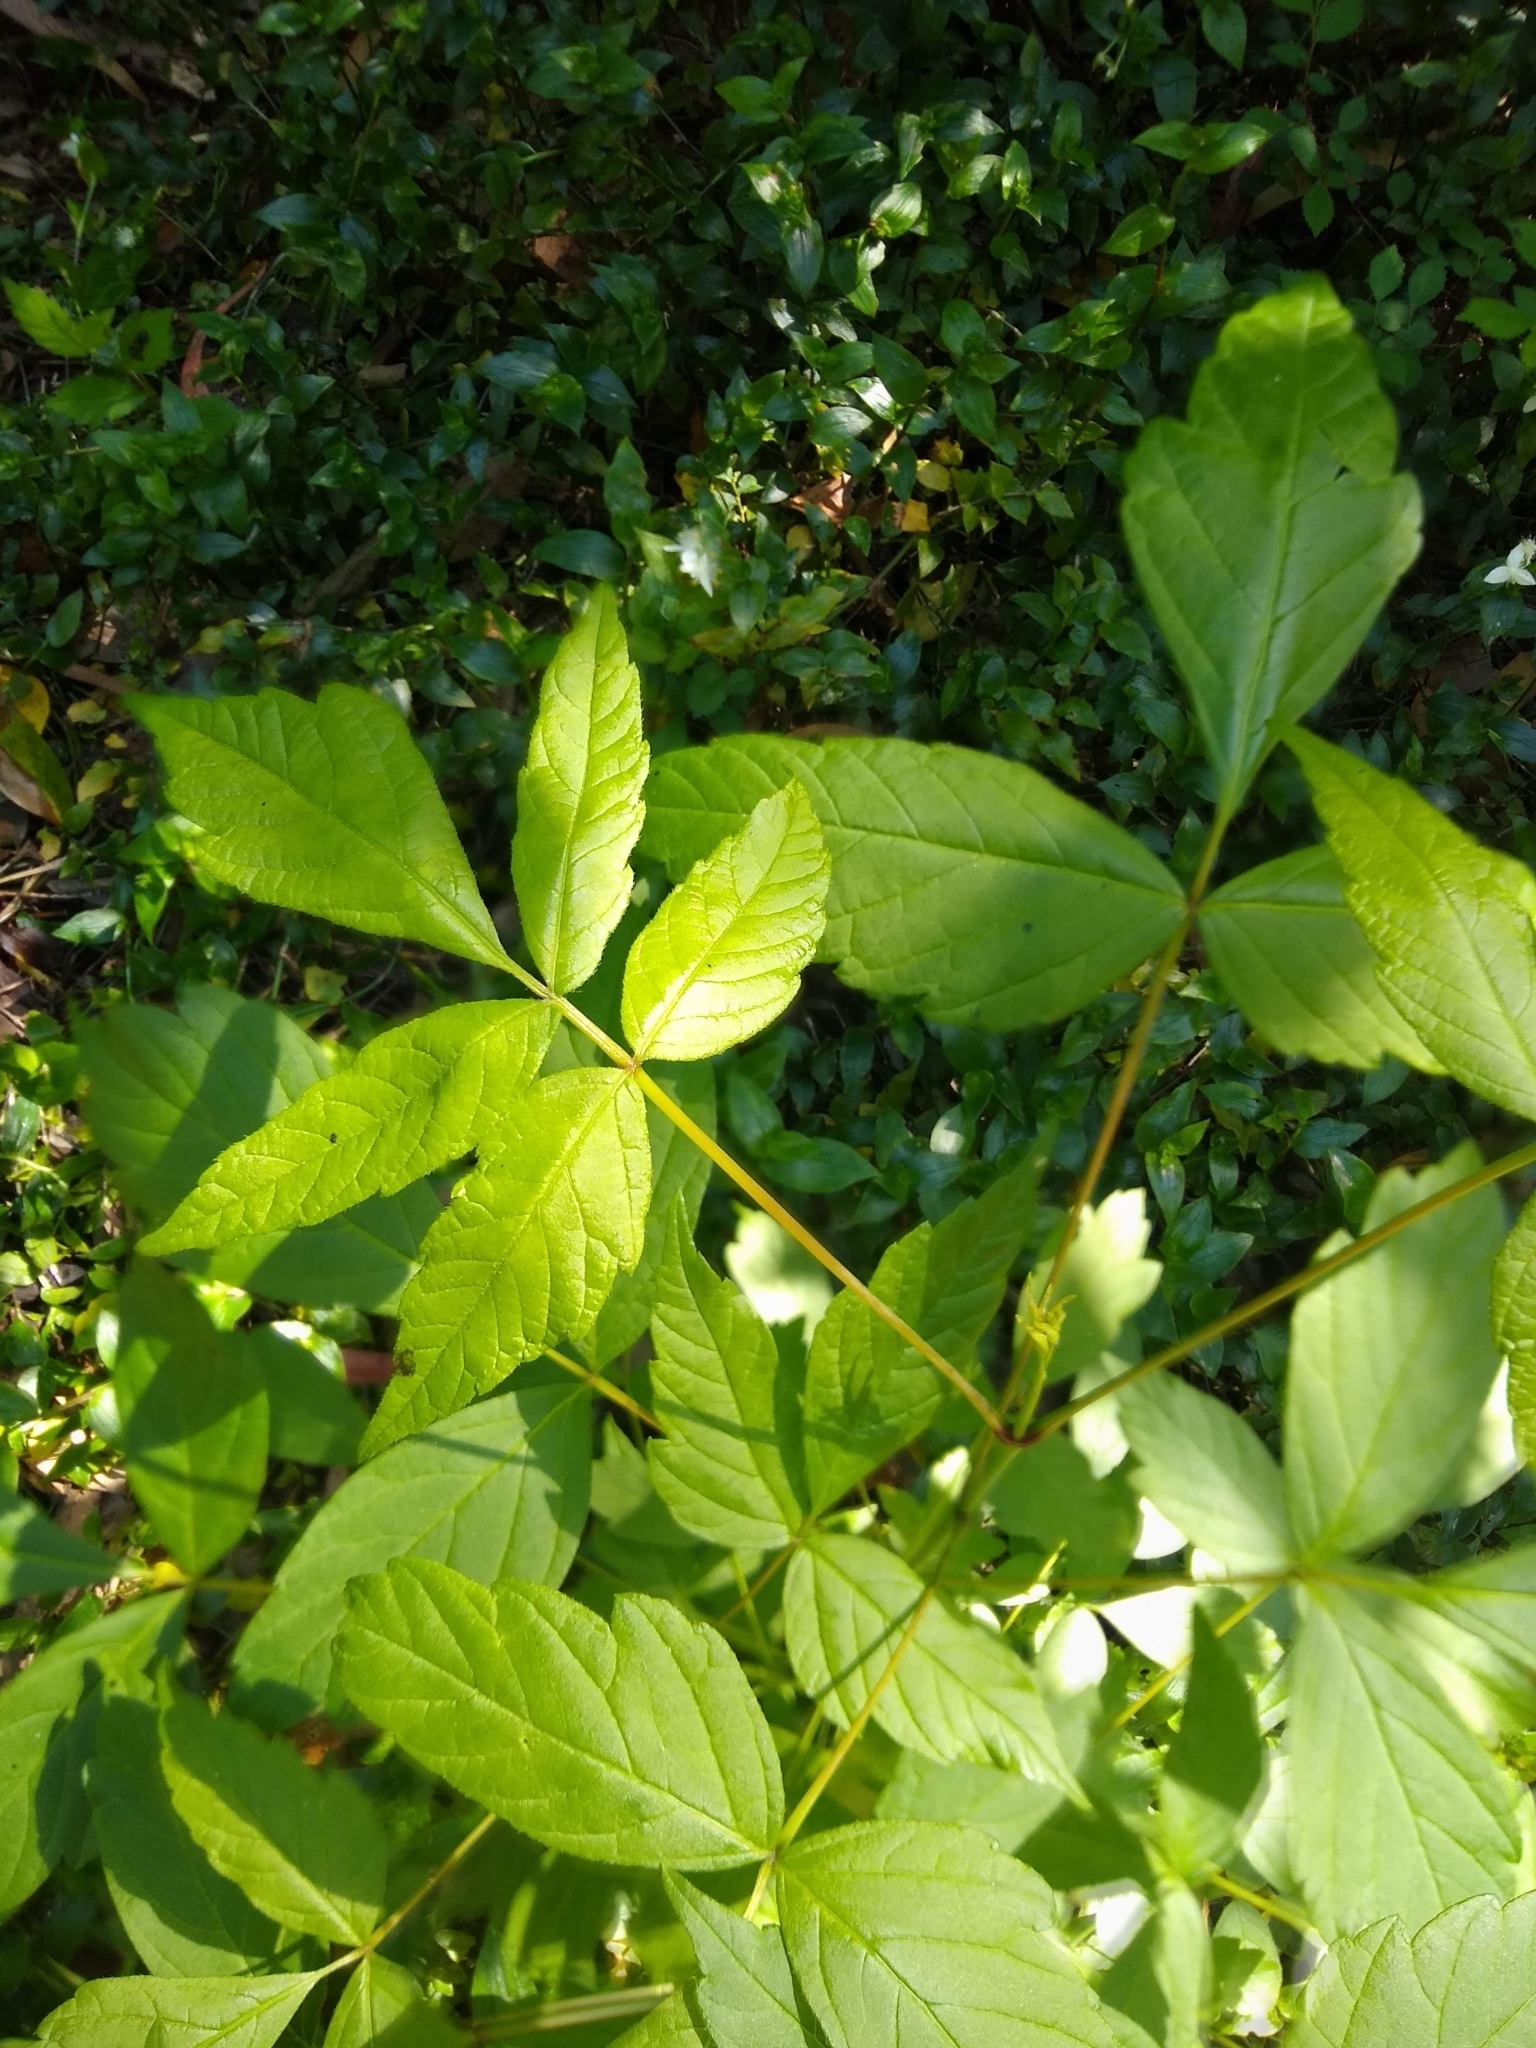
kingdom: Plantae
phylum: Tracheophyta
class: Magnoliopsida
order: Sapindales
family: Sapindaceae
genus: Acer
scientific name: Acer negundo
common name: Ashleaf maple
